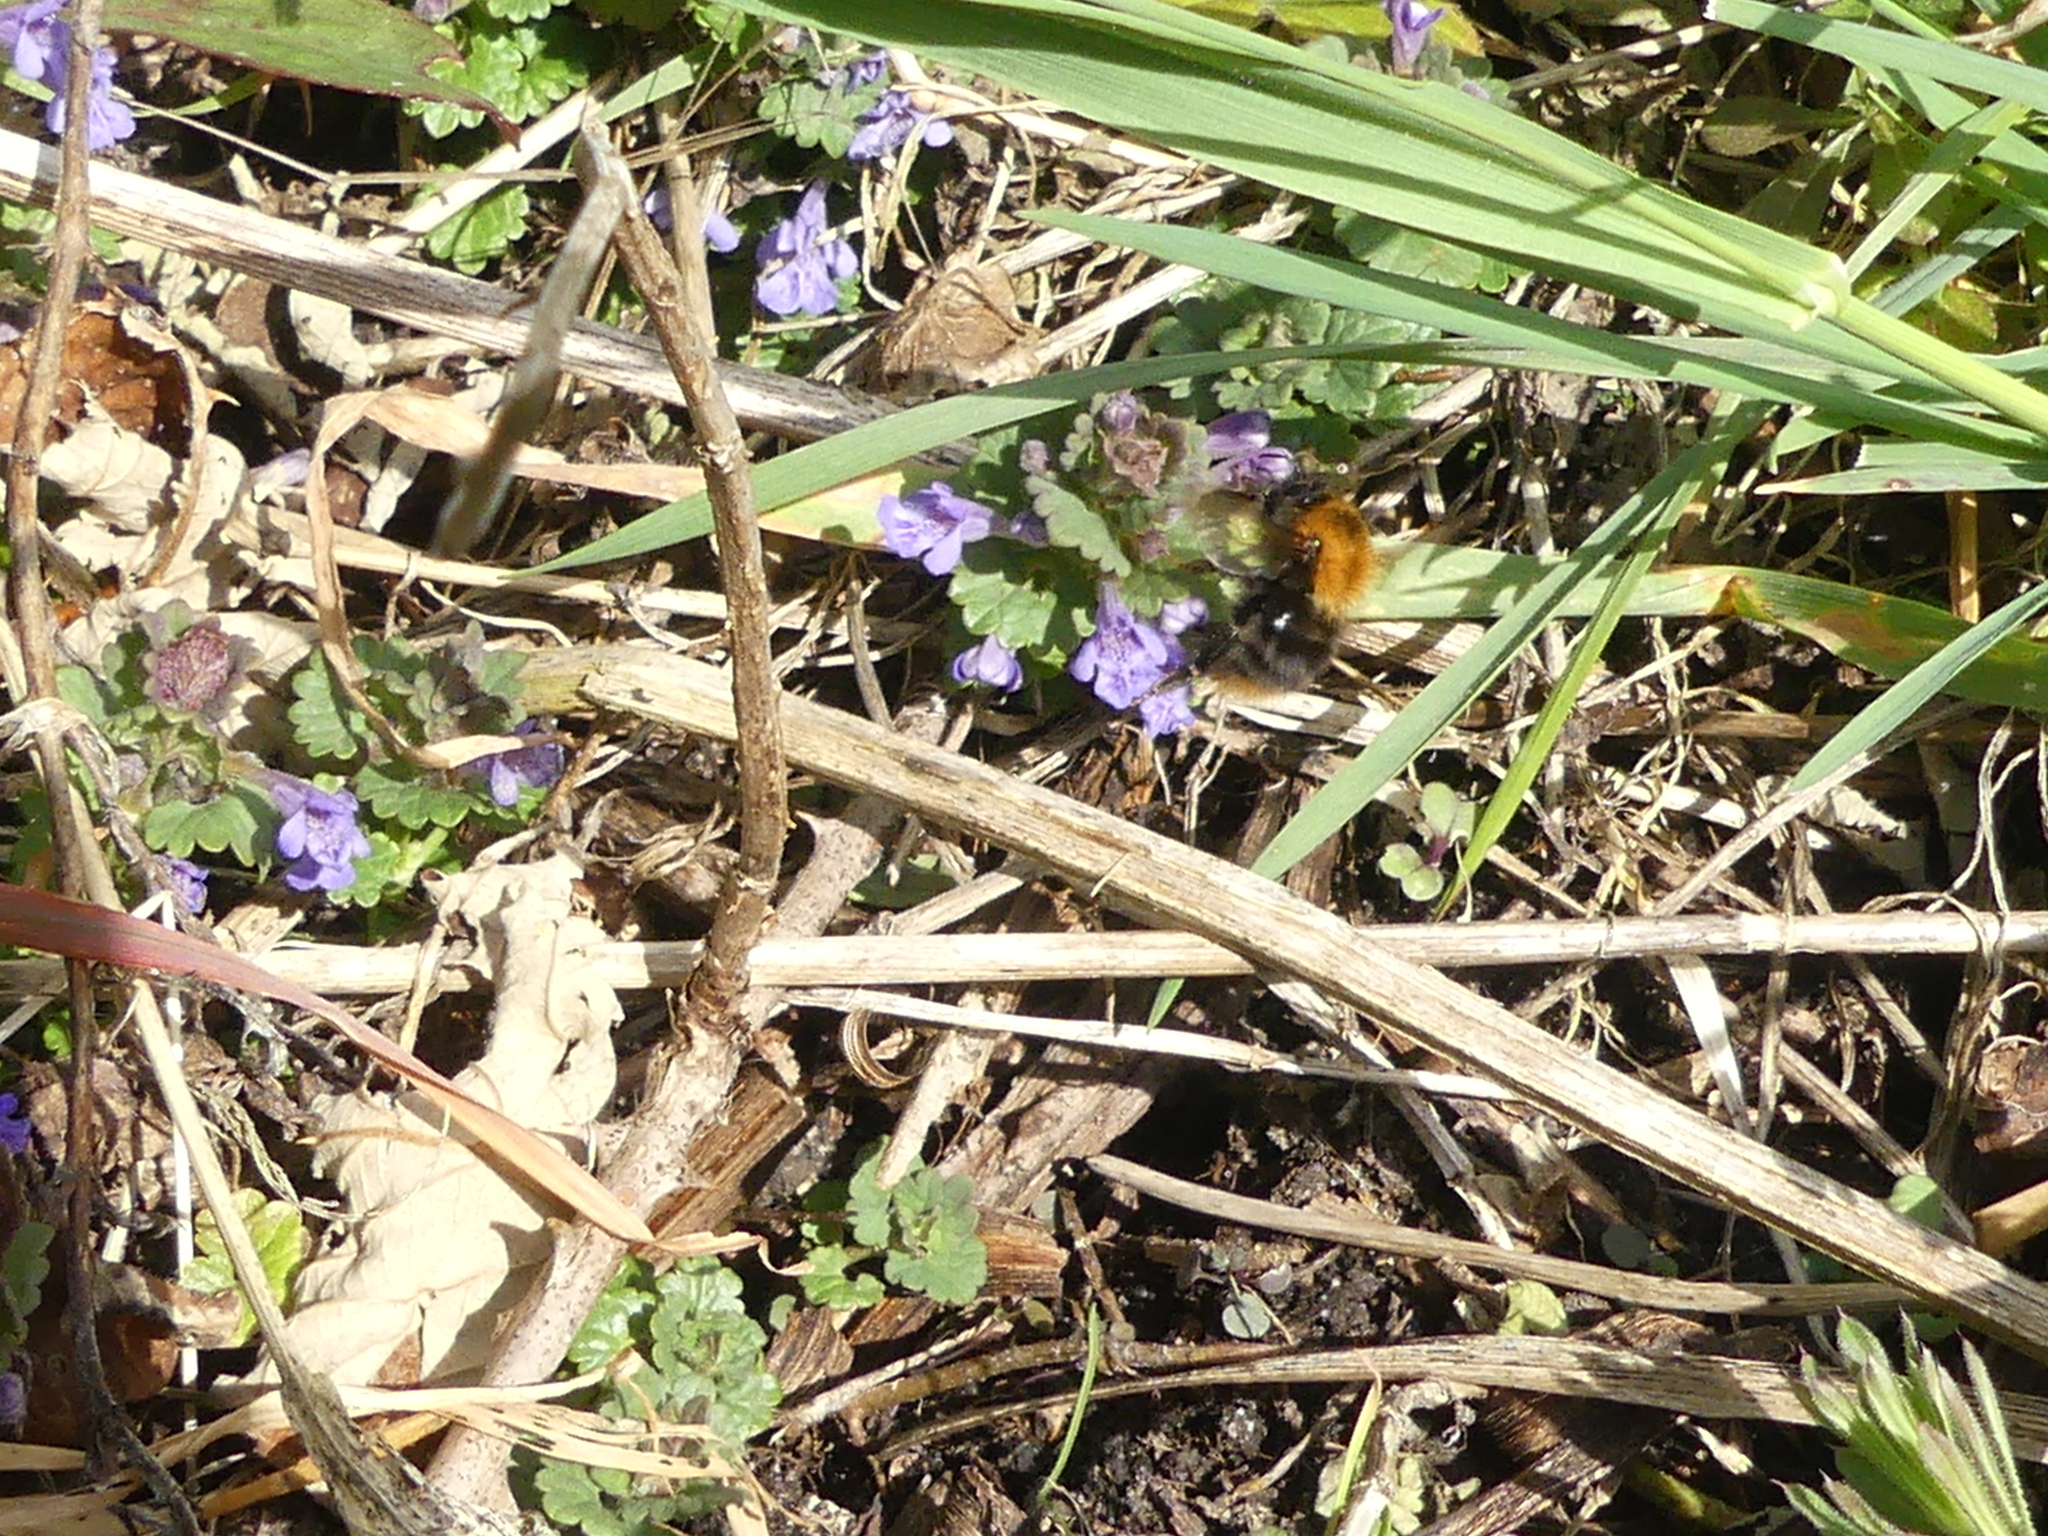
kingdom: Animalia
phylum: Arthropoda
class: Insecta
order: Hymenoptera
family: Apidae
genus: Bombus
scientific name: Bombus pascuorum
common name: Common carder bee
